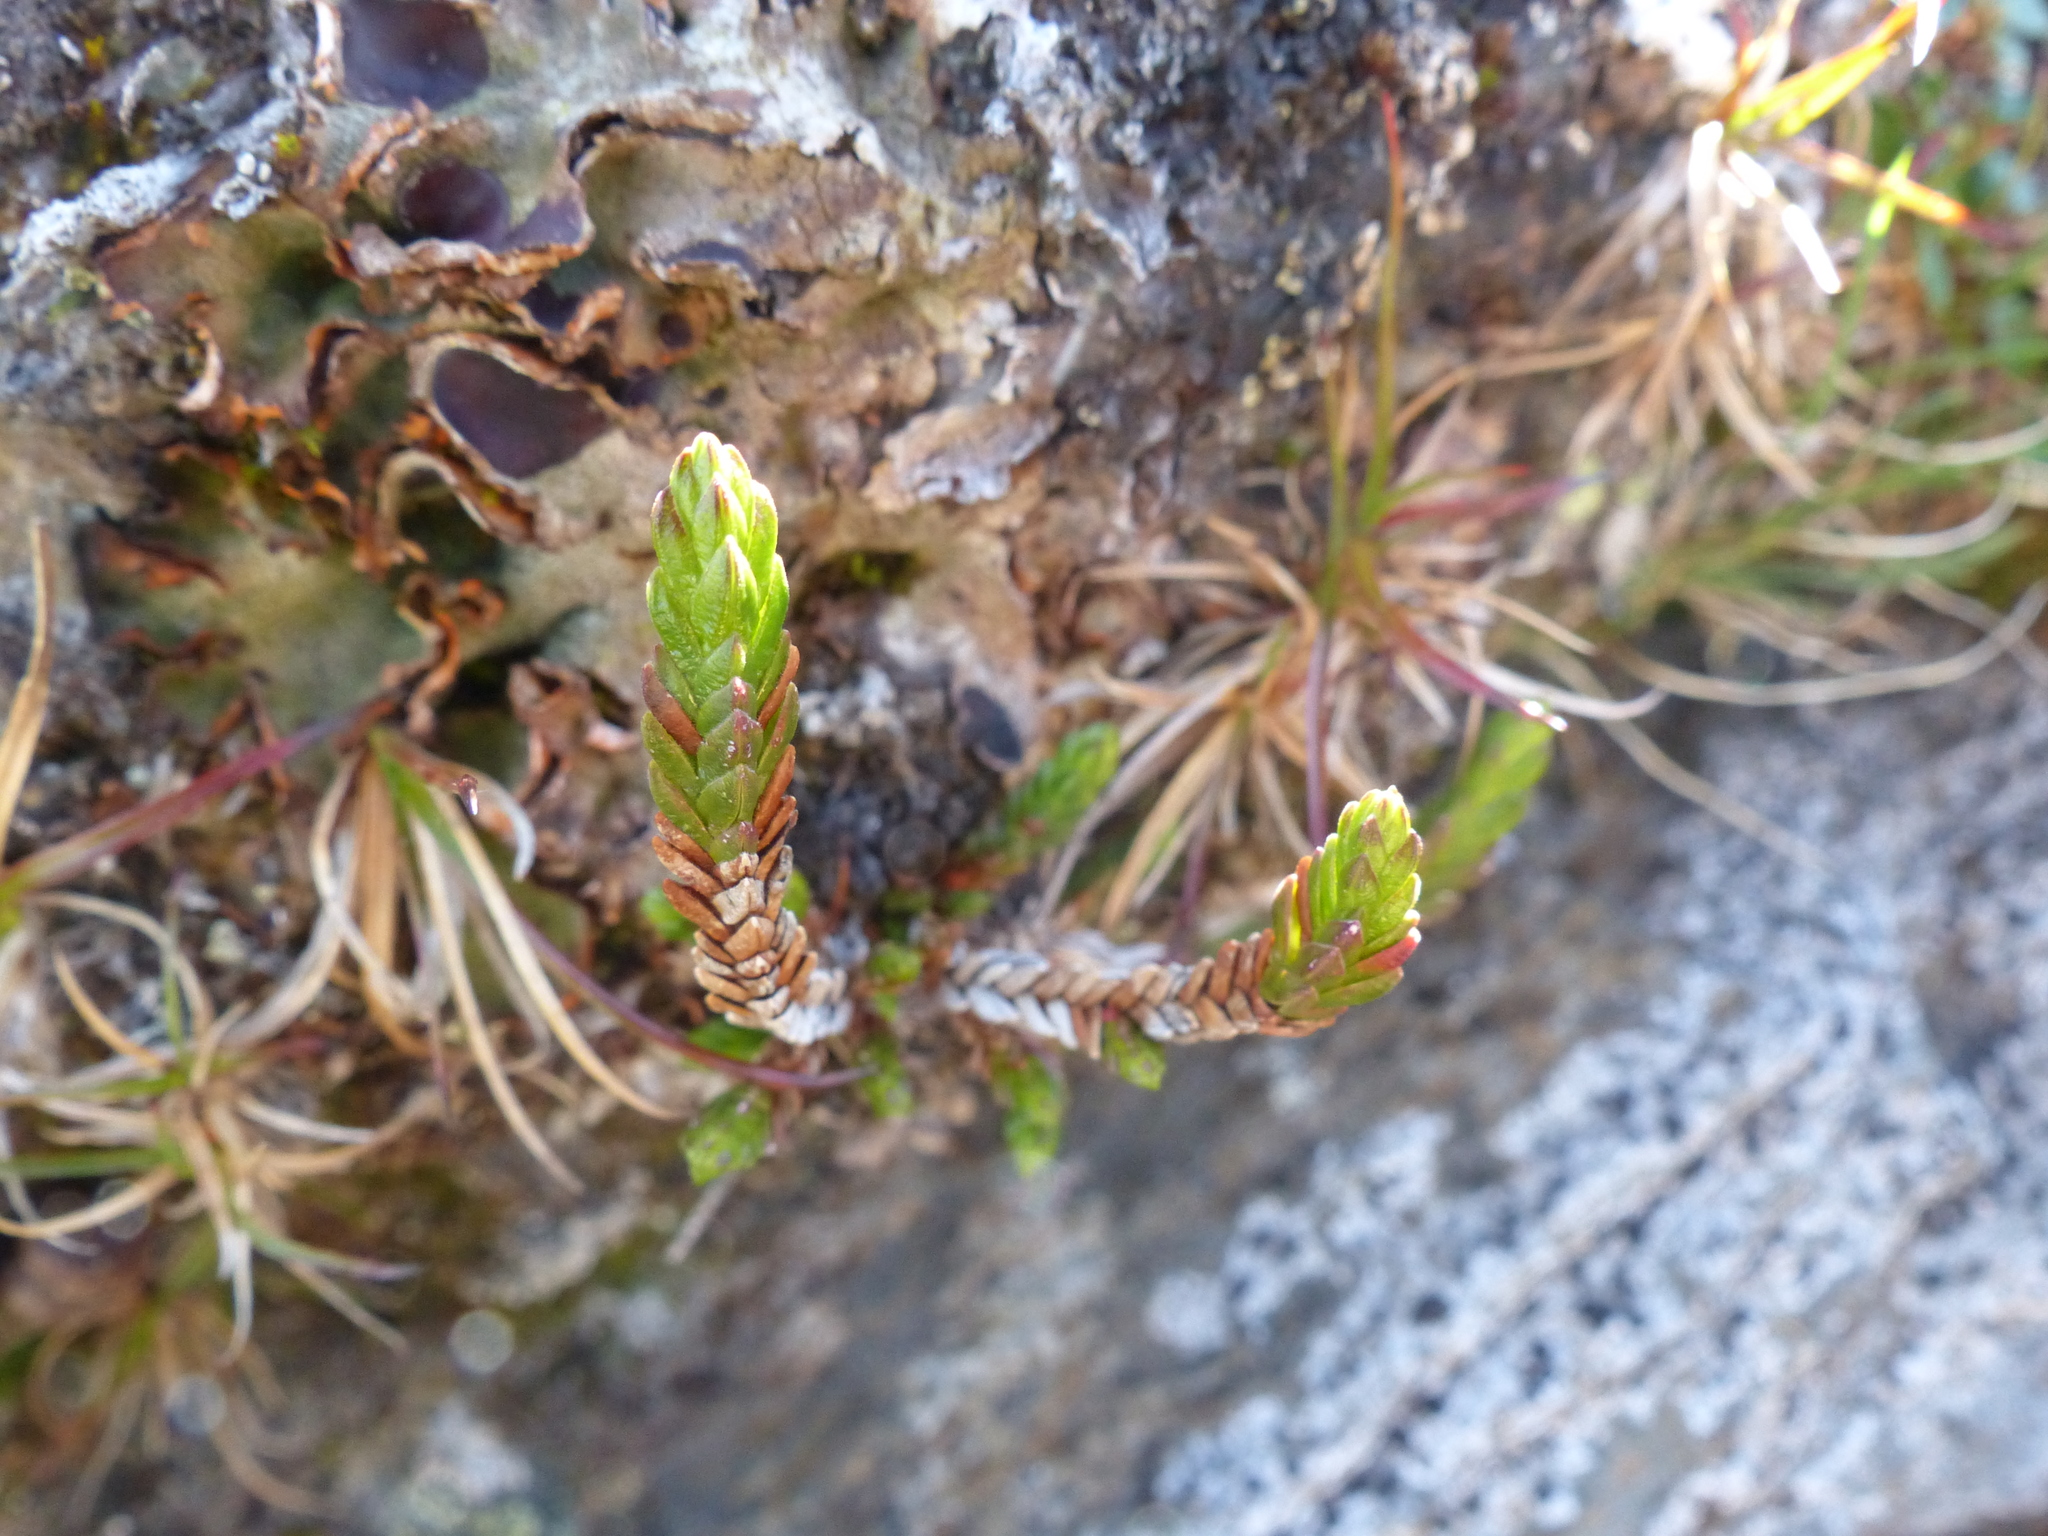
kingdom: Plantae
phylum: Tracheophyta
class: Magnoliopsida
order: Ericales
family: Ericaceae
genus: Cassiope
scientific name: Cassiope tetragona
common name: Arctic bell heather
